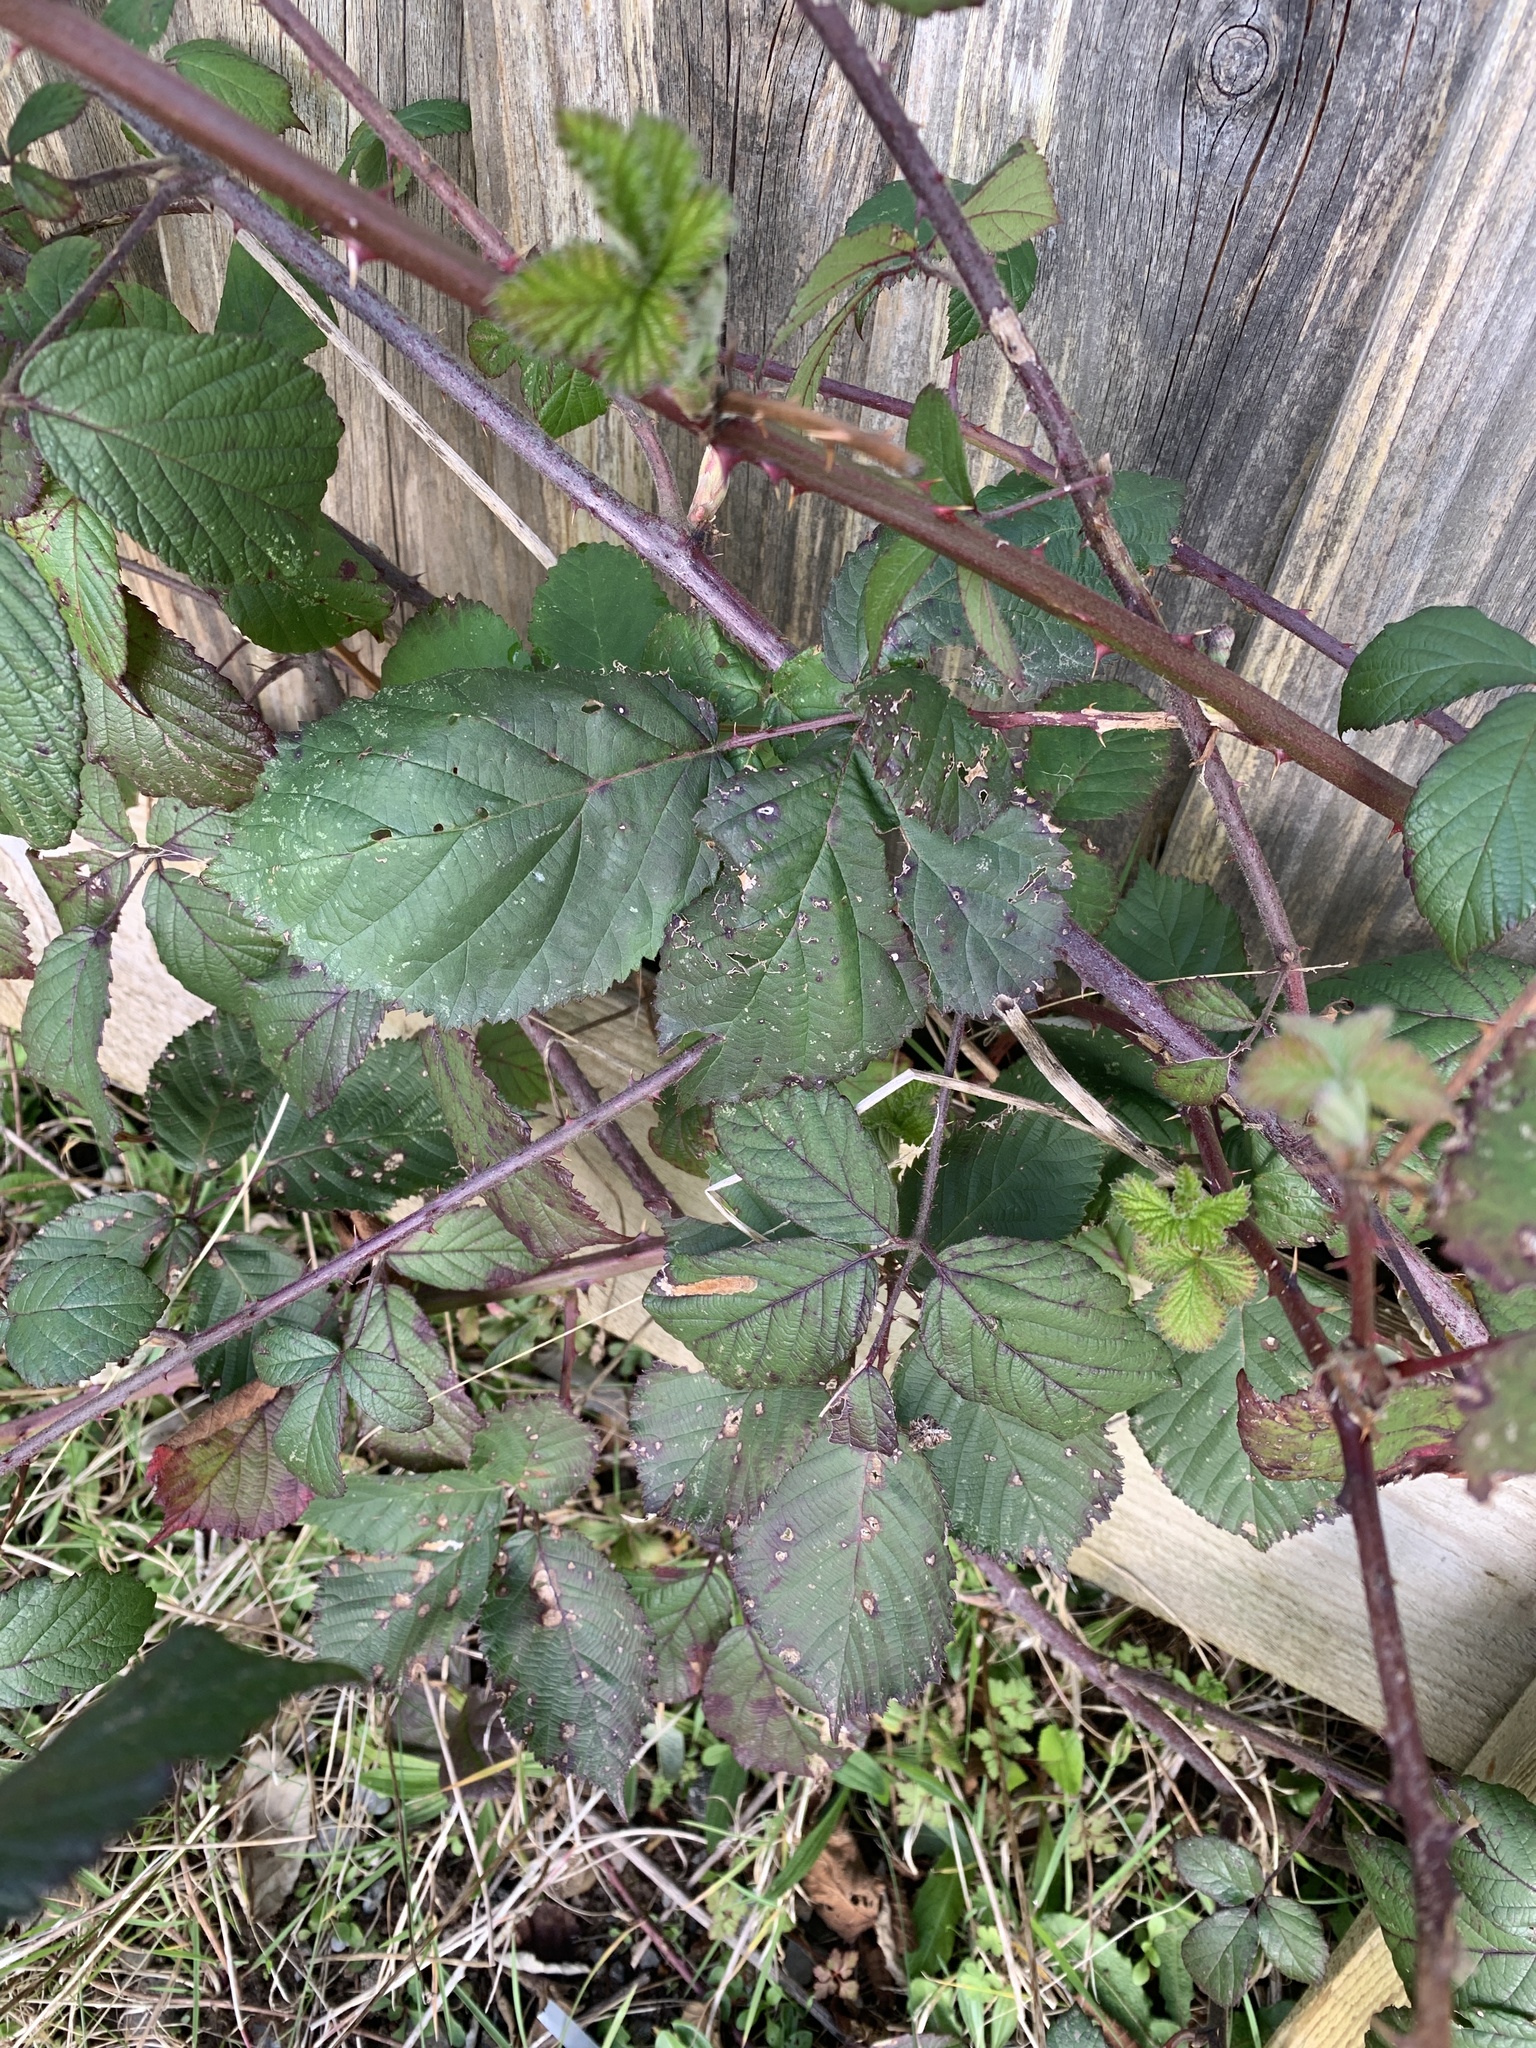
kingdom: Plantae
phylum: Tracheophyta
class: Magnoliopsida
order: Rosales
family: Rosaceae
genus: Rubus
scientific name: Rubus fruticosus
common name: Blackberry, bramble
